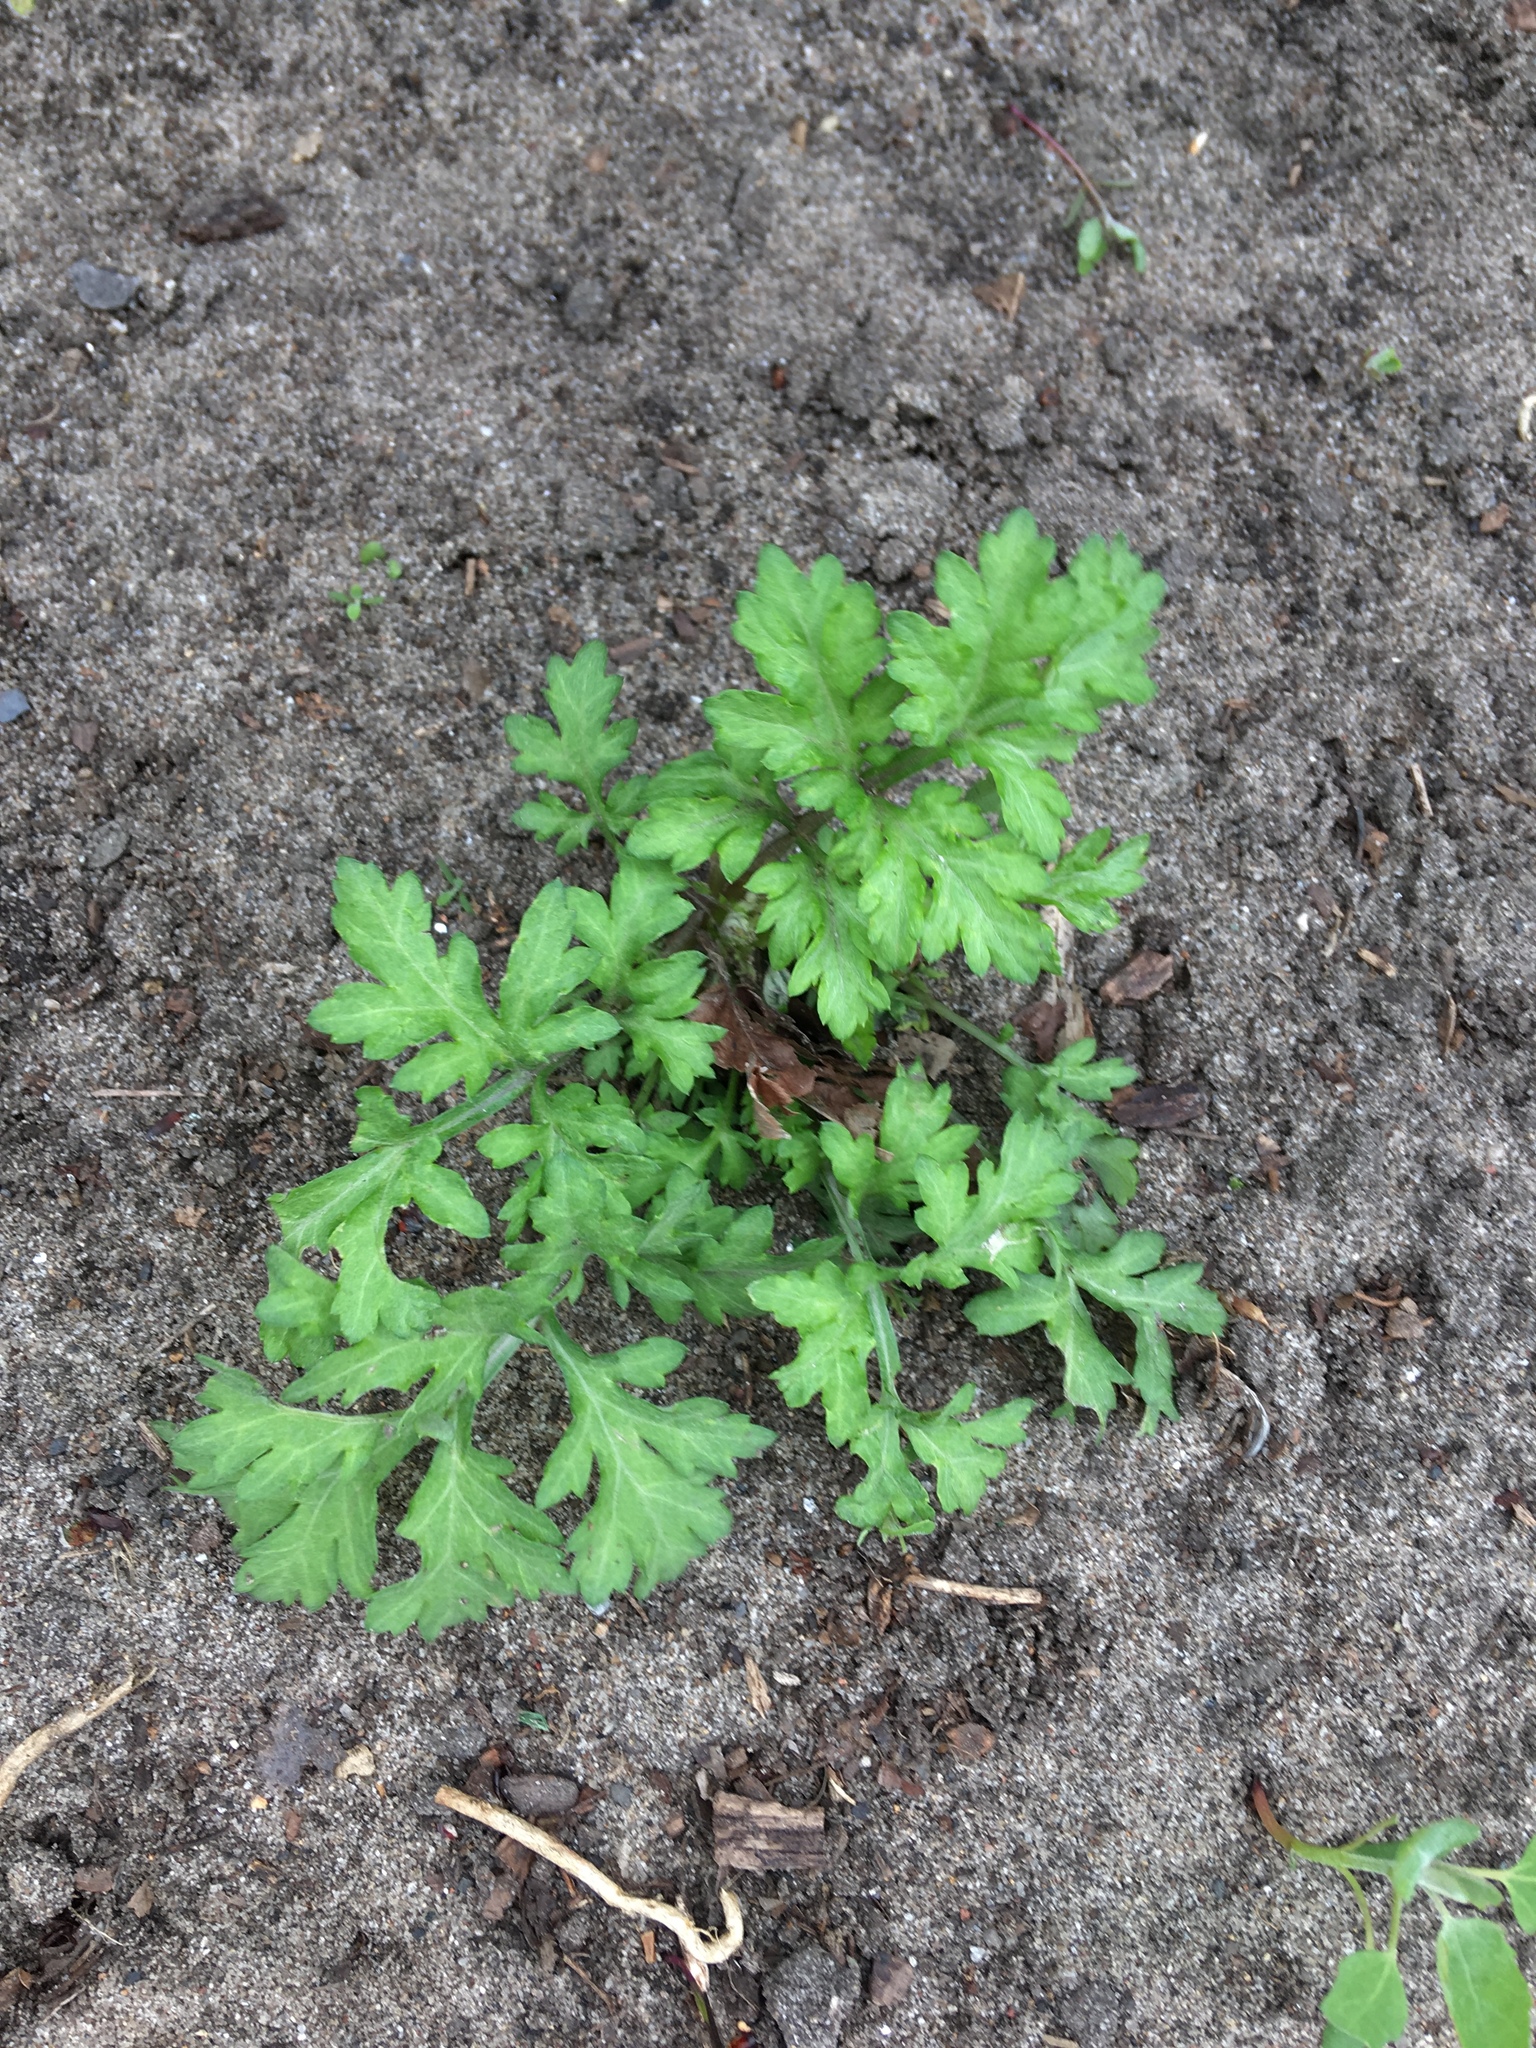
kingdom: Plantae
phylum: Tracheophyta
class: Magnoliopsida
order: Asterales
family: Asteraceae
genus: Artemisia
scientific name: Artemisia vulgaris
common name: Mugwort
